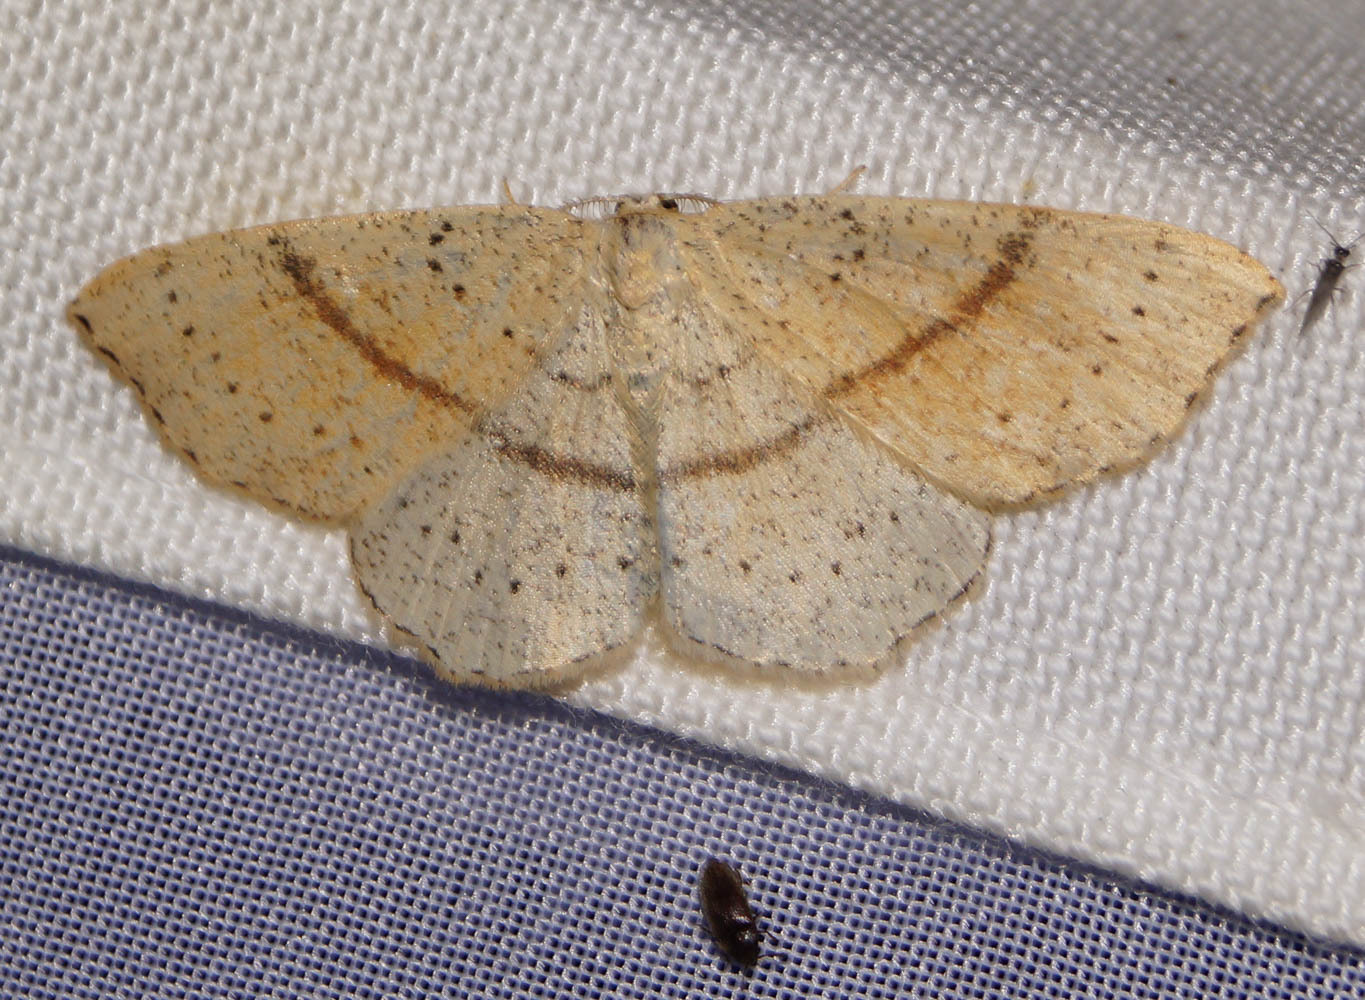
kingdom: Animalia
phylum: Arthropoda
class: Insecta
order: Lepidoptera
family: Geometridae
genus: Cyclophora
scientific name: Cyclophora punctaria
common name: Maiden's blush
